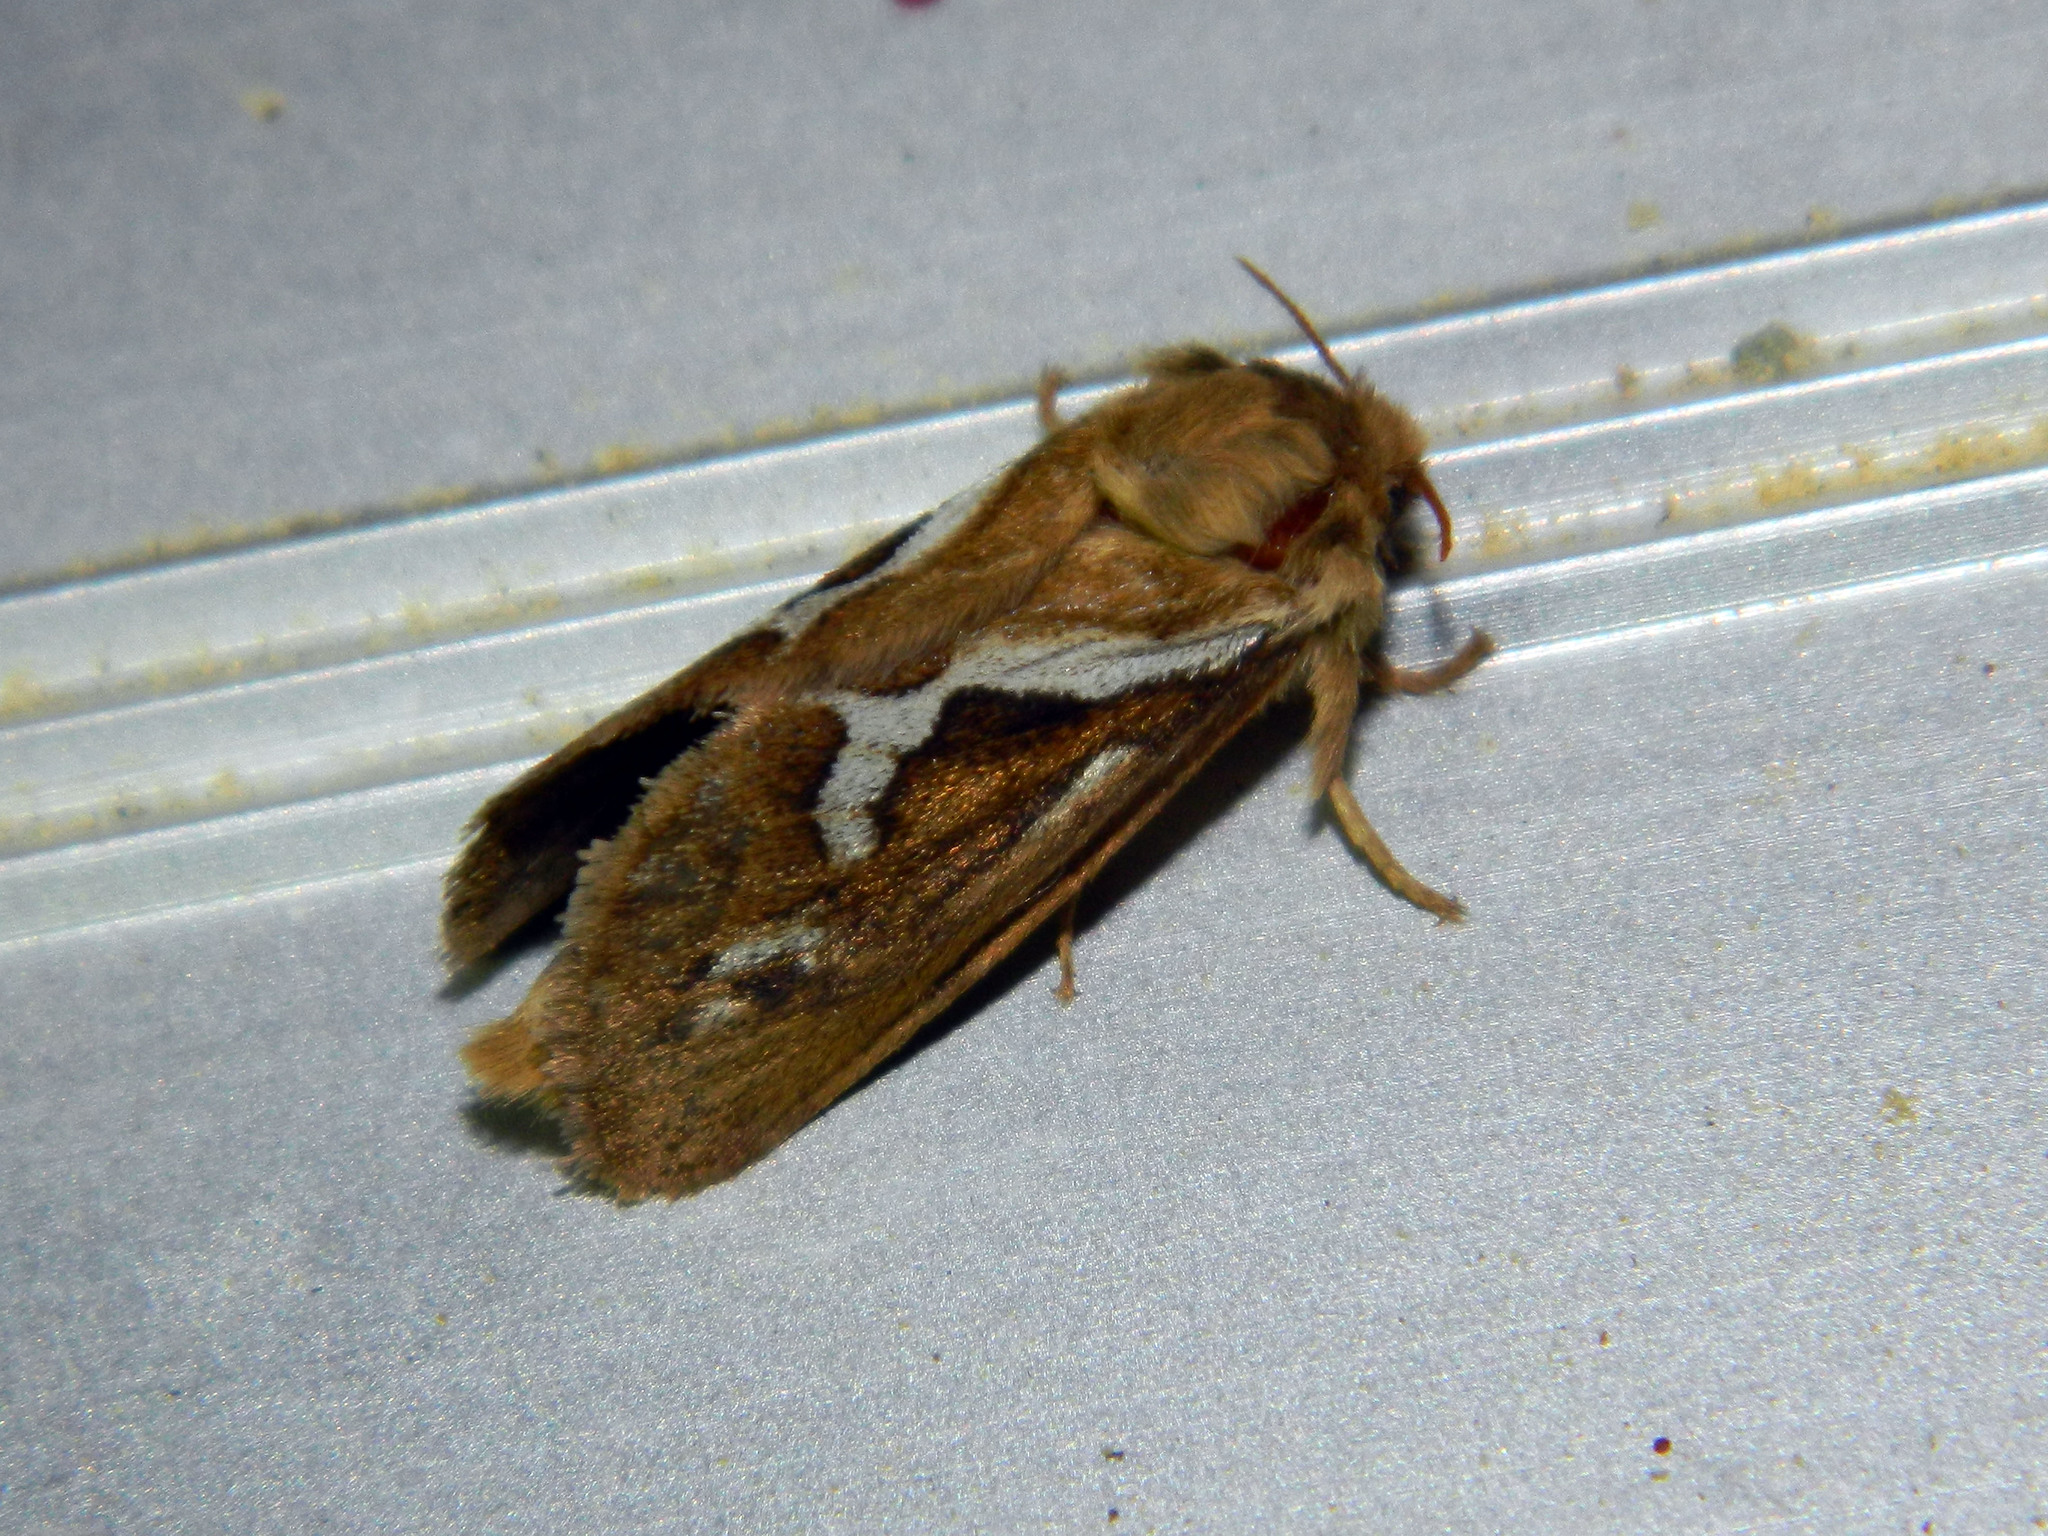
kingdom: Animalia
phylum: Arthropoda
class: Insecta
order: Lepidoptera
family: Hepialidae
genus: Korscheltellus
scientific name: Korscheltellus lupulina
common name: Common swift
